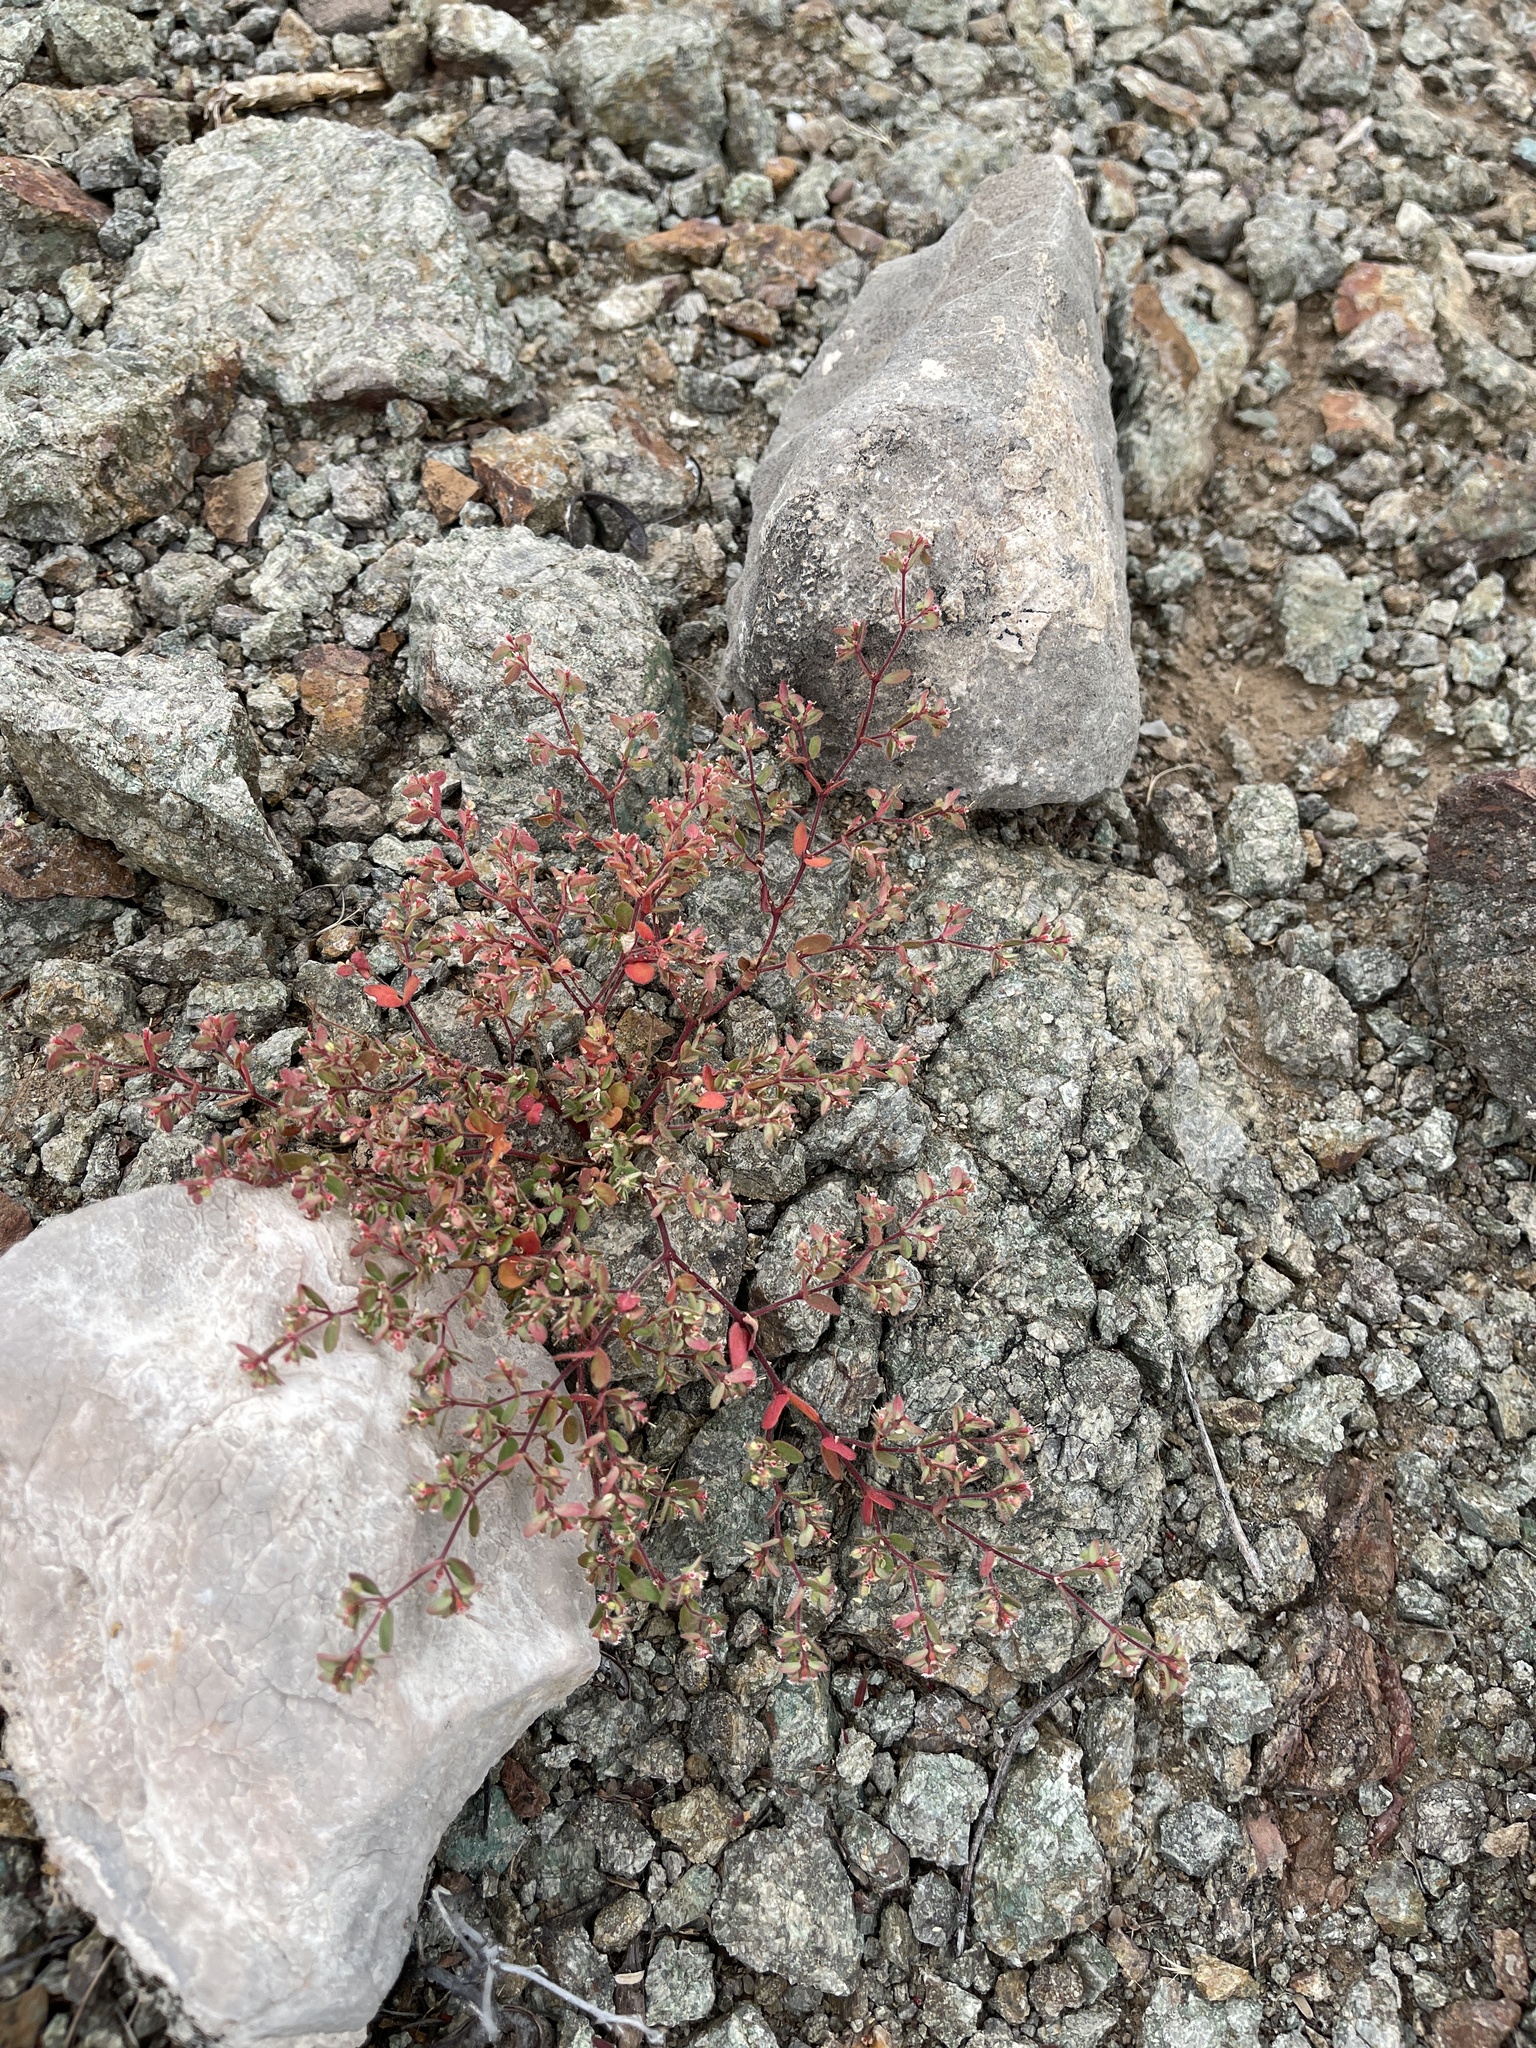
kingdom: Plantae
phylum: Tracheophyta
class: Magnoliopsida
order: Malpighiales
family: Euphorbiaceae
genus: Euphorbia
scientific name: Euphorbia setiloba
